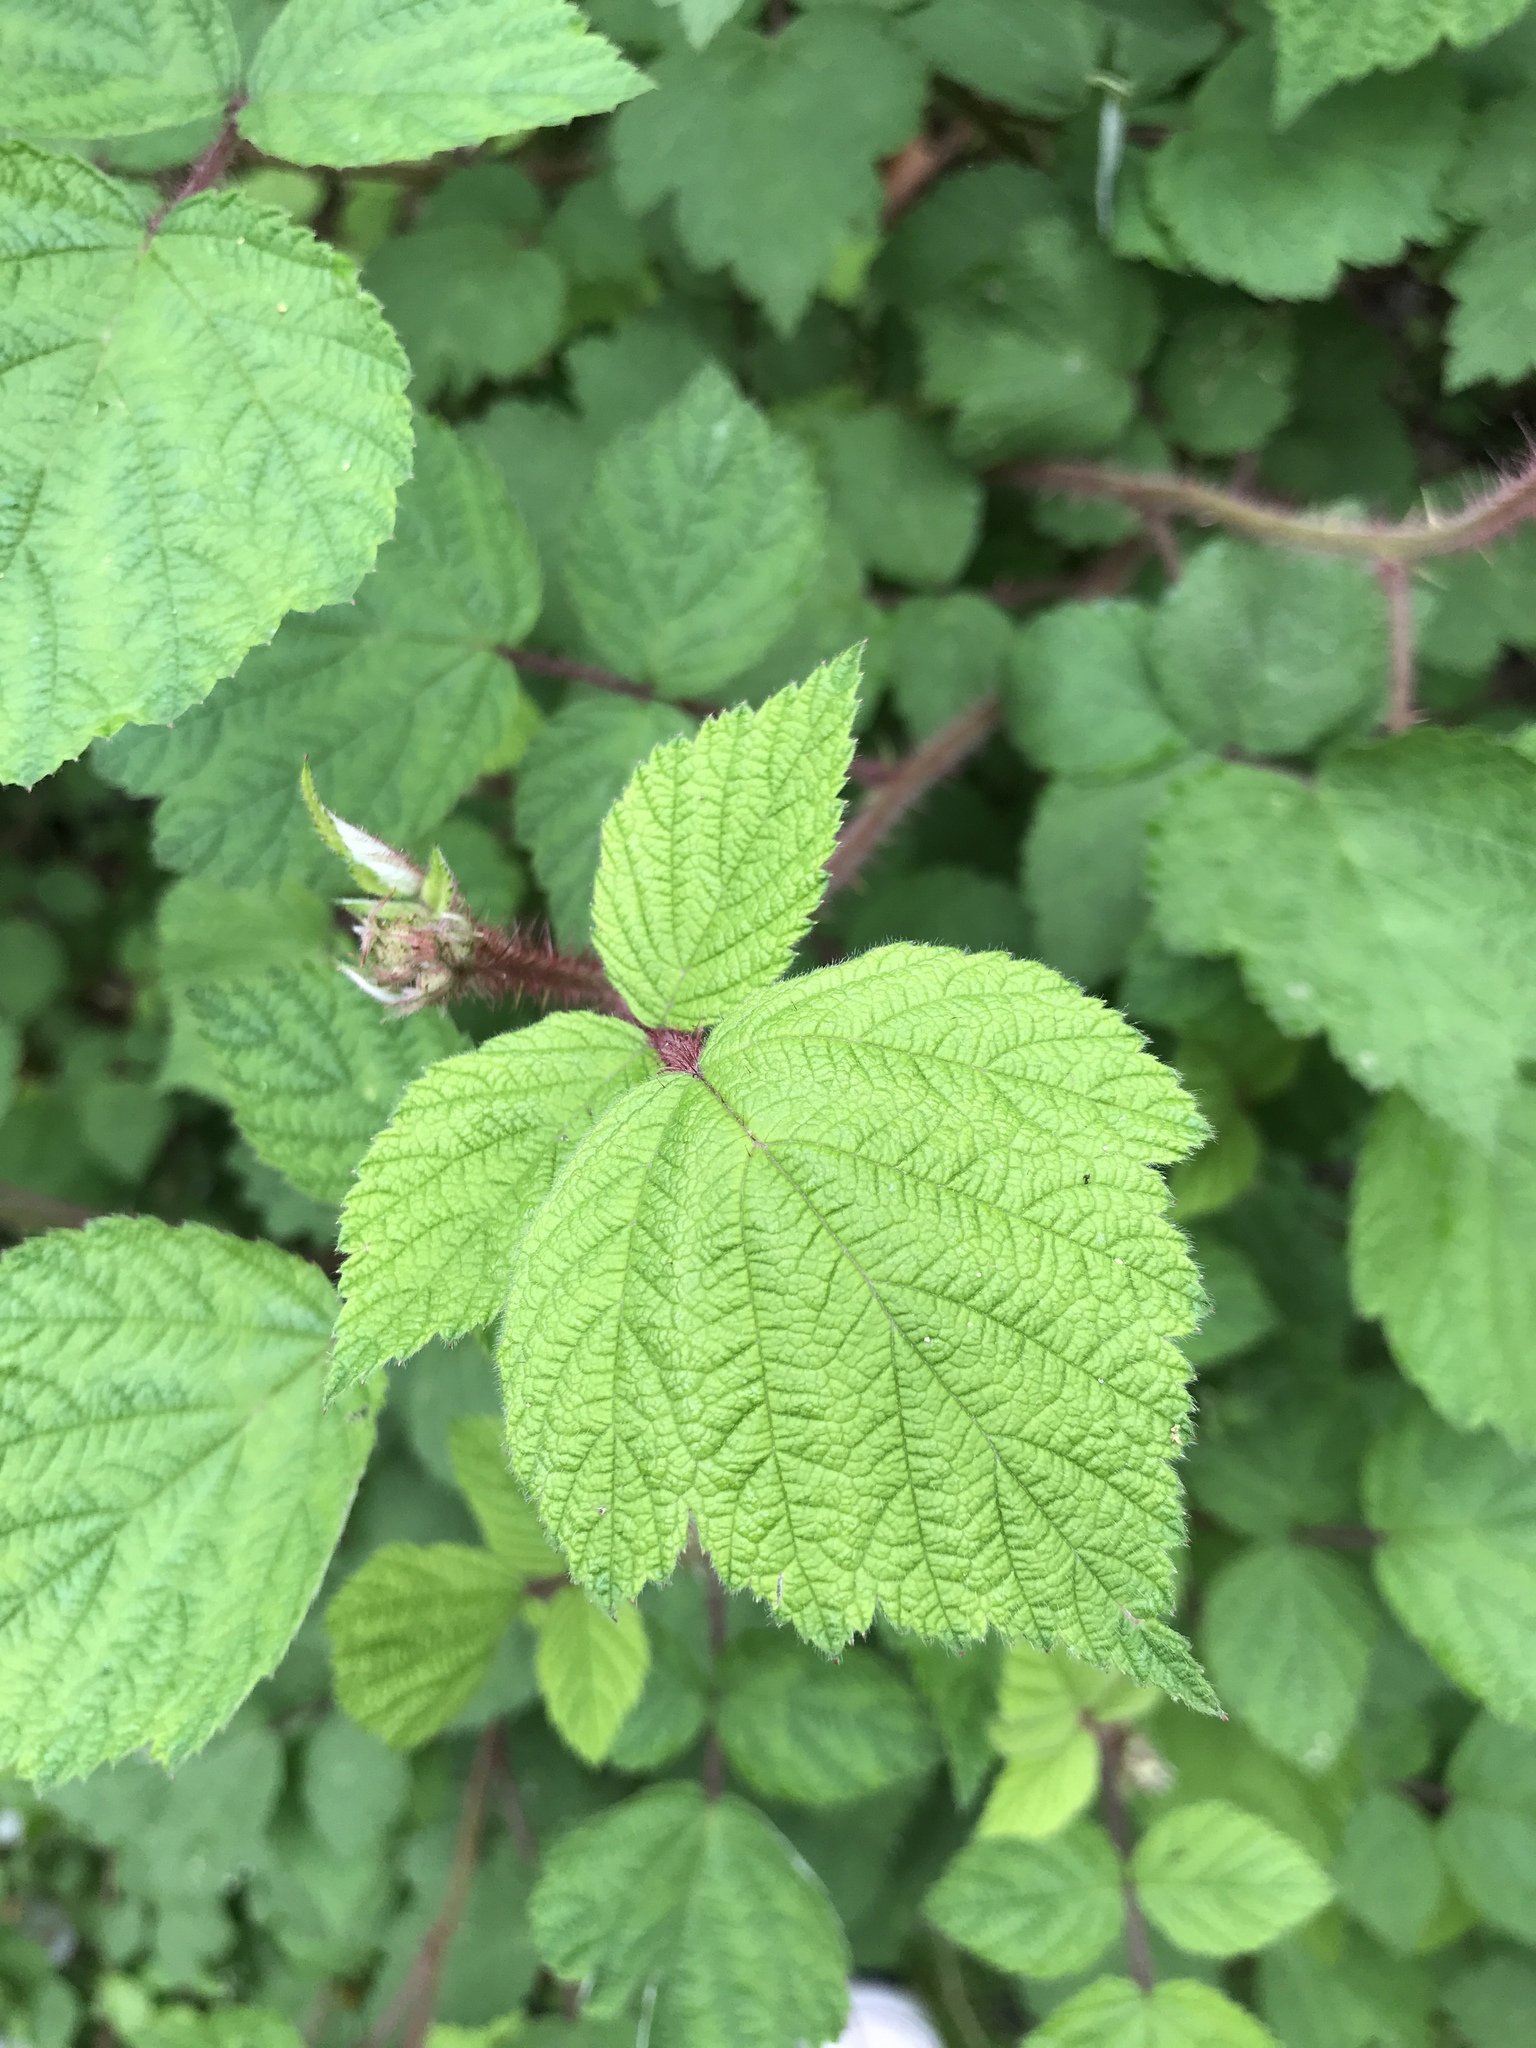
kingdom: Plantae
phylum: Tracheophyta
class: Magnoliopsida
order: Rosales
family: Rosaceae
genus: Rubus
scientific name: Rubus phoenicolasius
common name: Japanese wineberry
